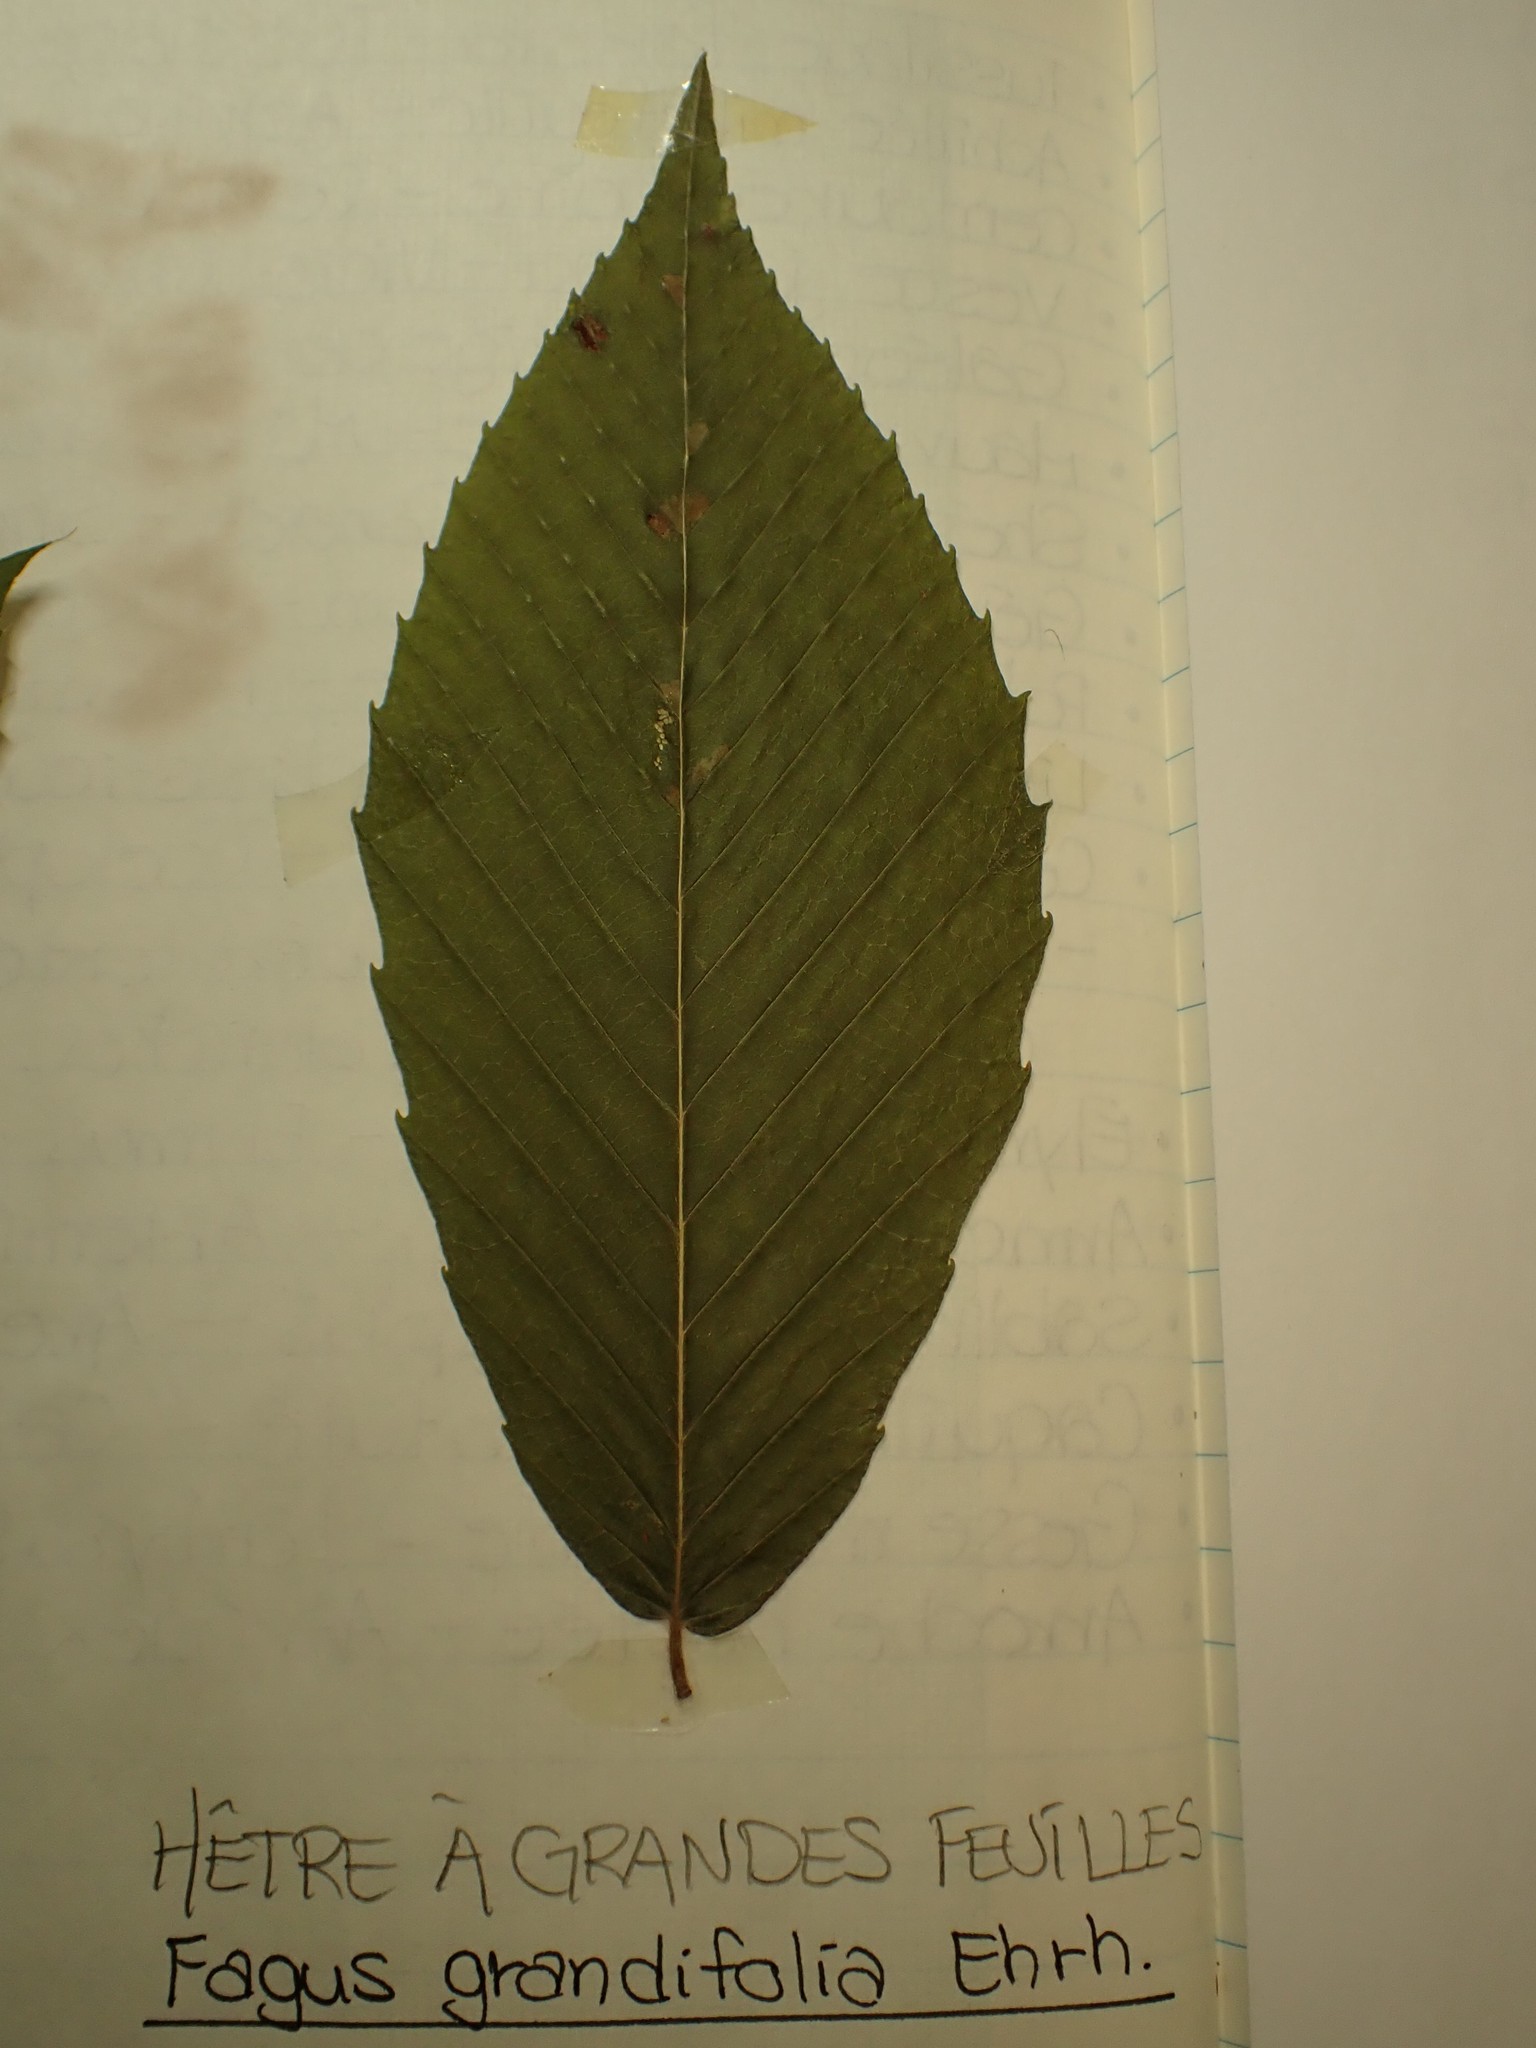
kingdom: Plantae
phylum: Tracheophyta
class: Magnoliopsida
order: Fagales
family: Fagaceae
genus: Fagus
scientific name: Fagus grandifolia
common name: American beech
